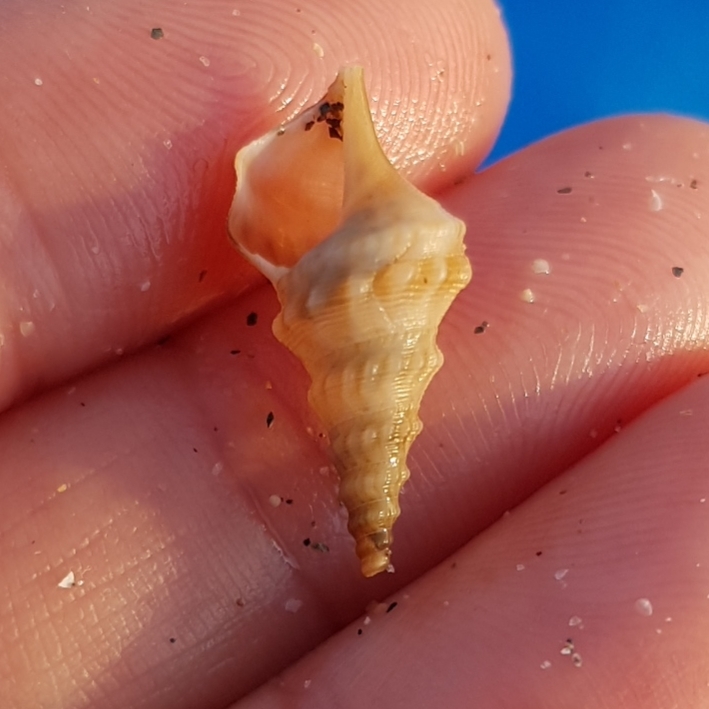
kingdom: Animalia
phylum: Mollusca
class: Gastropoda
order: Littorinimorpha
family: Aporrhaidae
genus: Aporrhais
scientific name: Aporrhais pespelecani
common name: Common pelican’s foot
